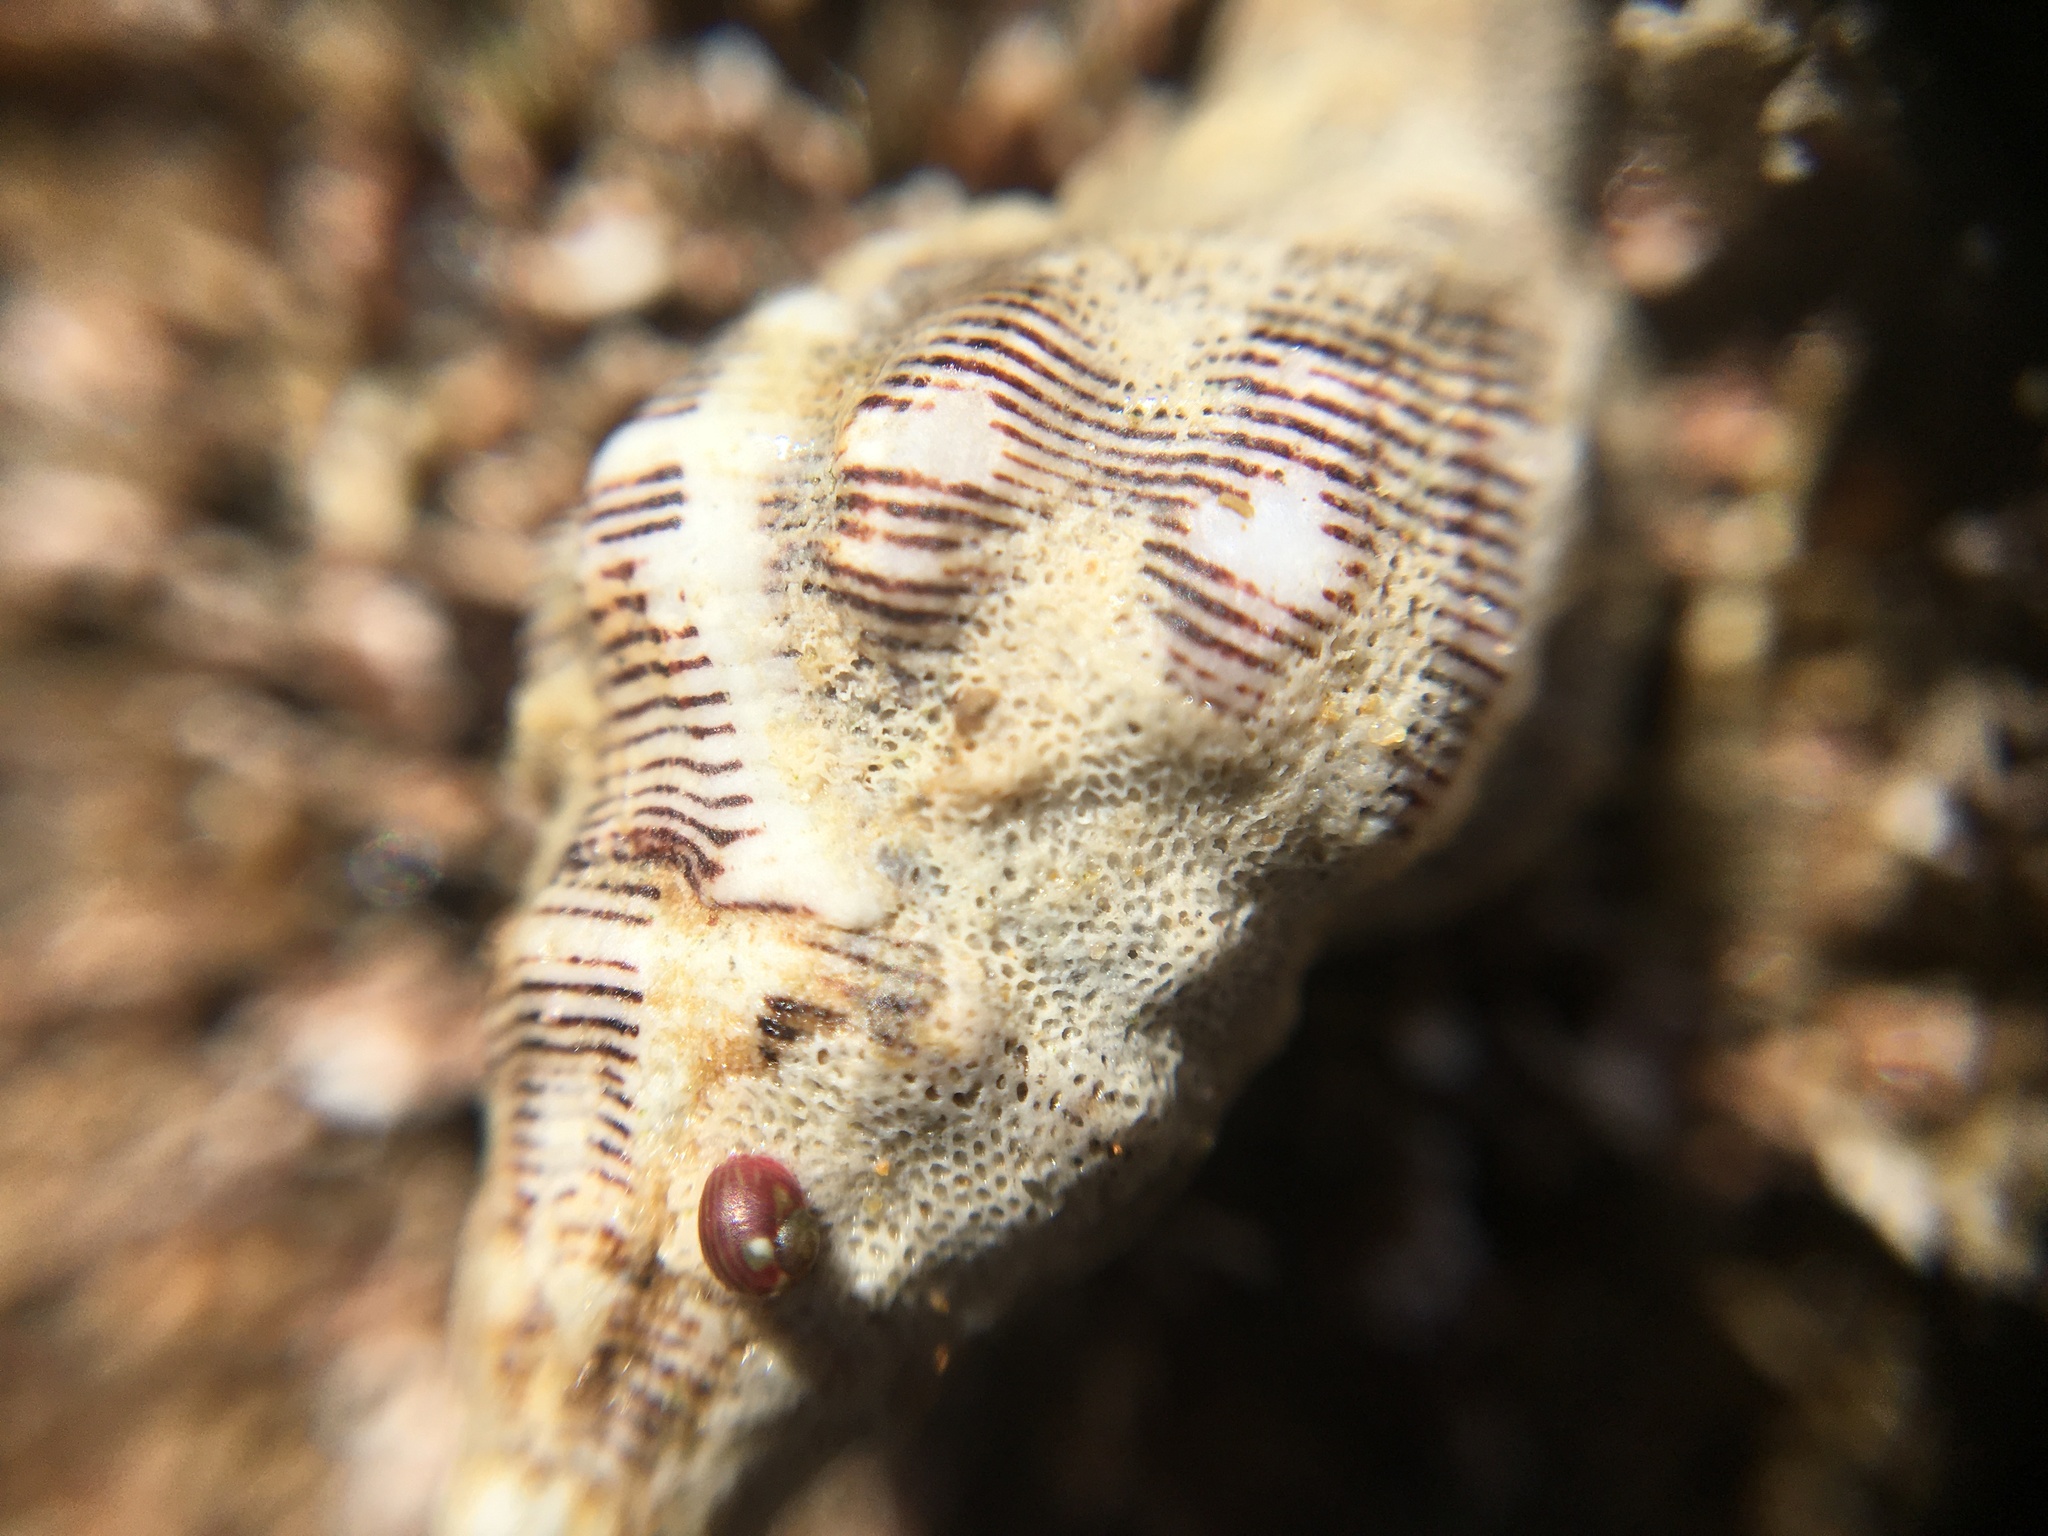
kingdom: Animalia
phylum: Mollusca
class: Gastropoda
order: Trochida
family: Phasianellidae
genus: Eulithidium
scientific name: Eulithidium rubrilineatum
